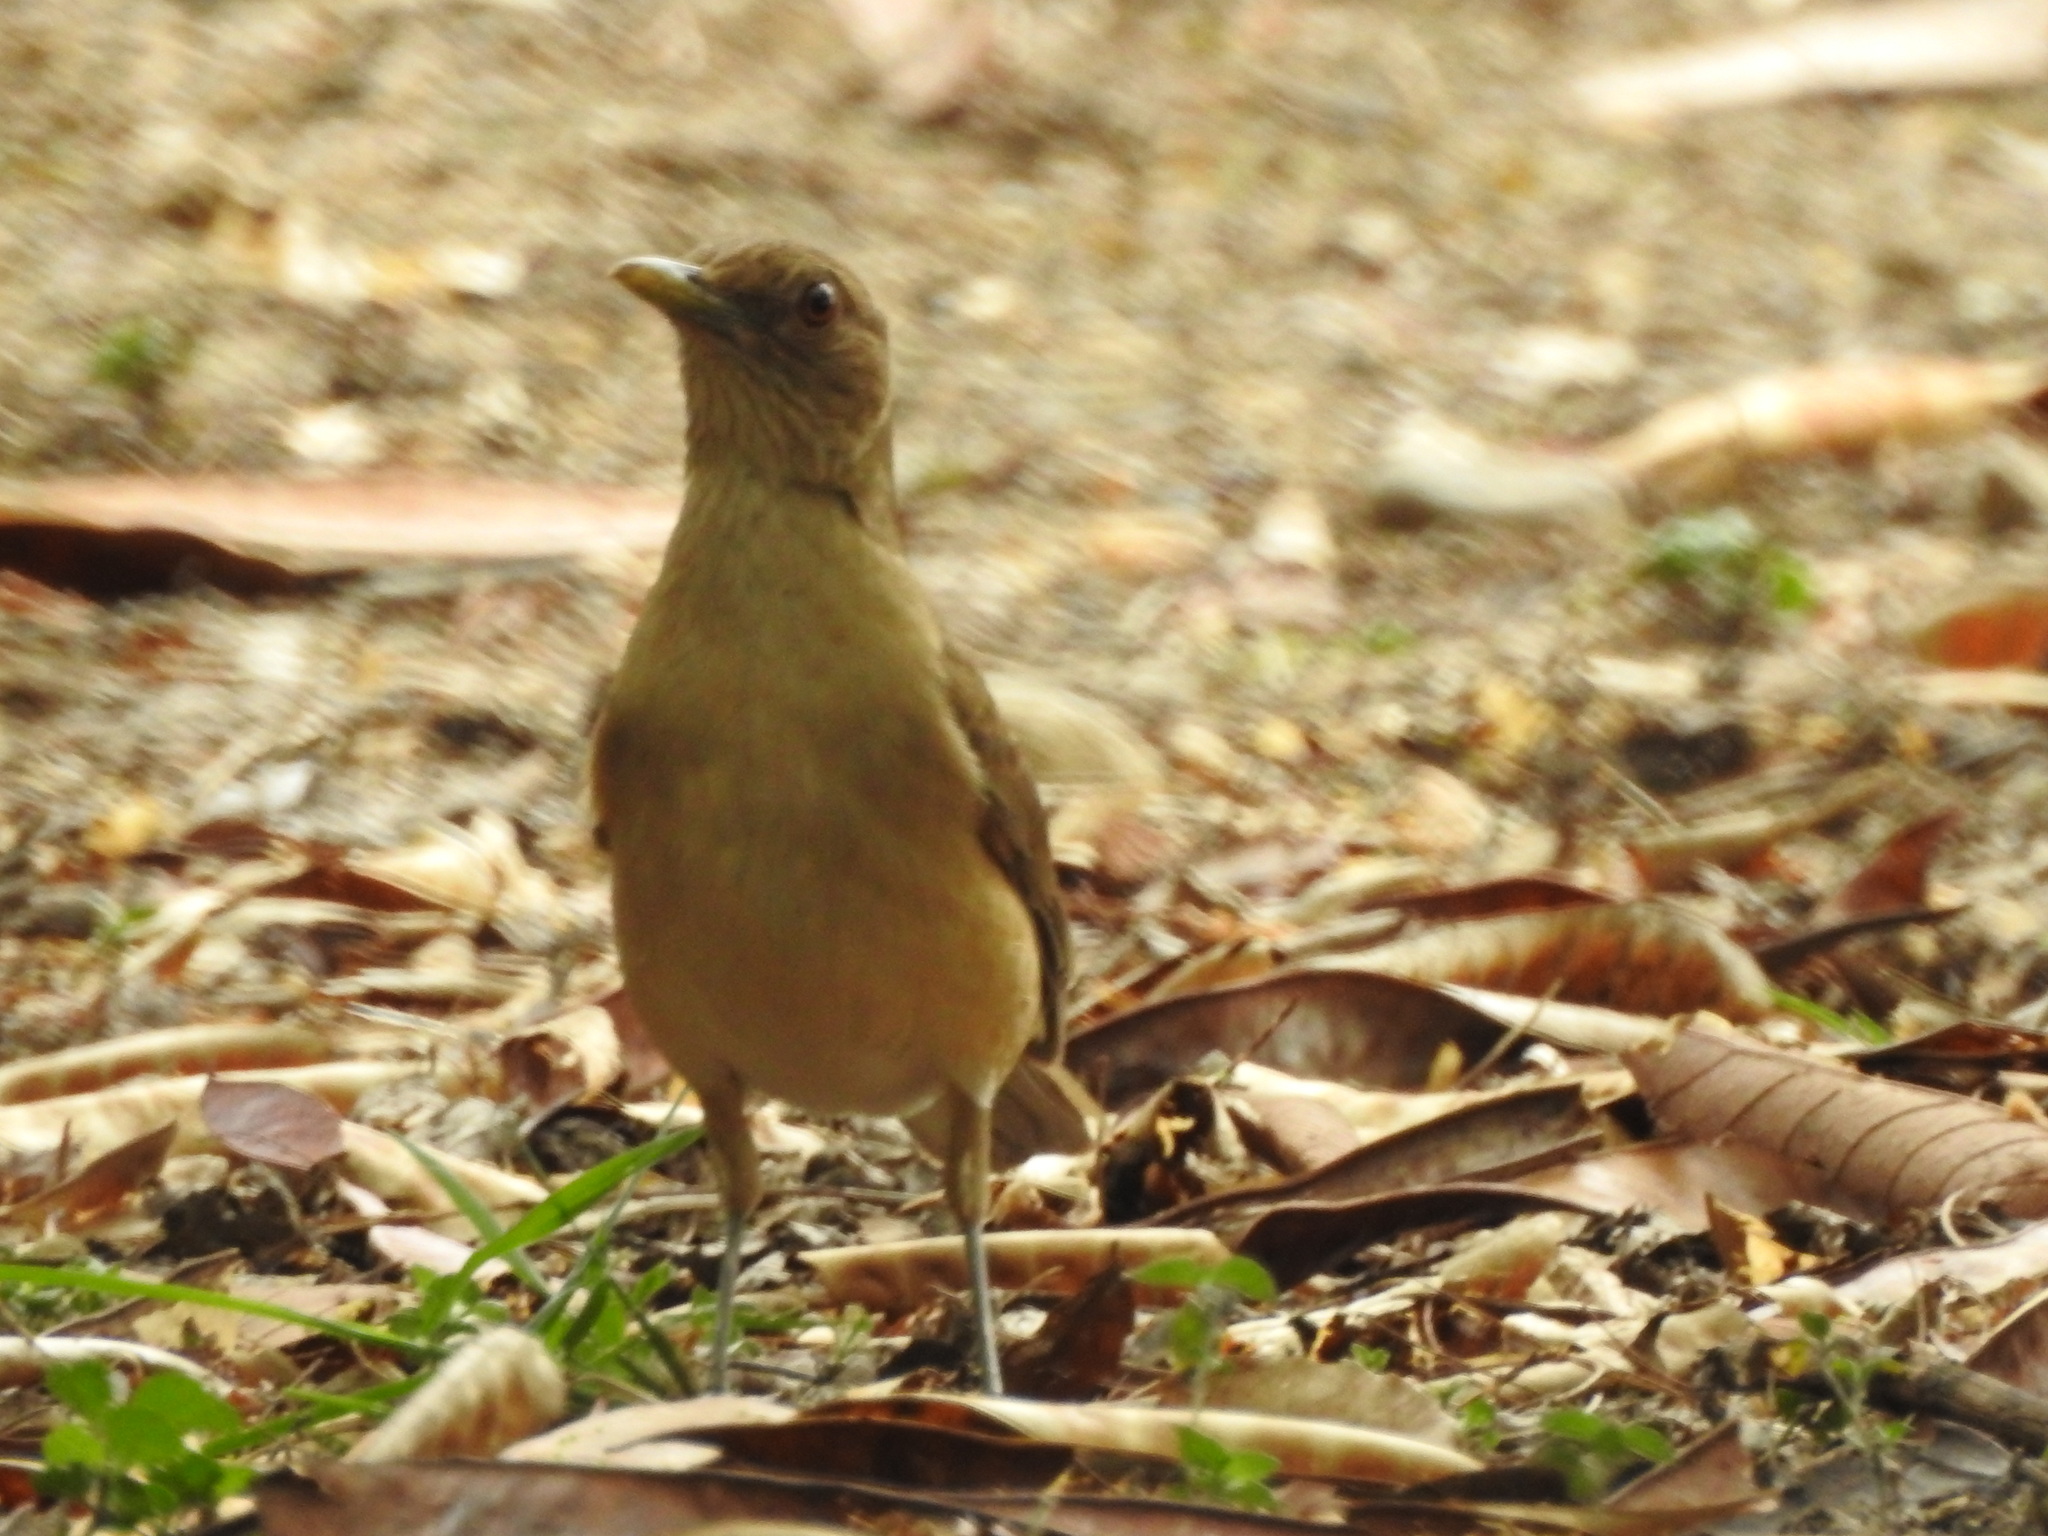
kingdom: Animalia
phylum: Chordata
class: Aves
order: Passeriformes
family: Turdidae
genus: Turdus
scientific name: Turdus grayi
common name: Clay-colored thrush
